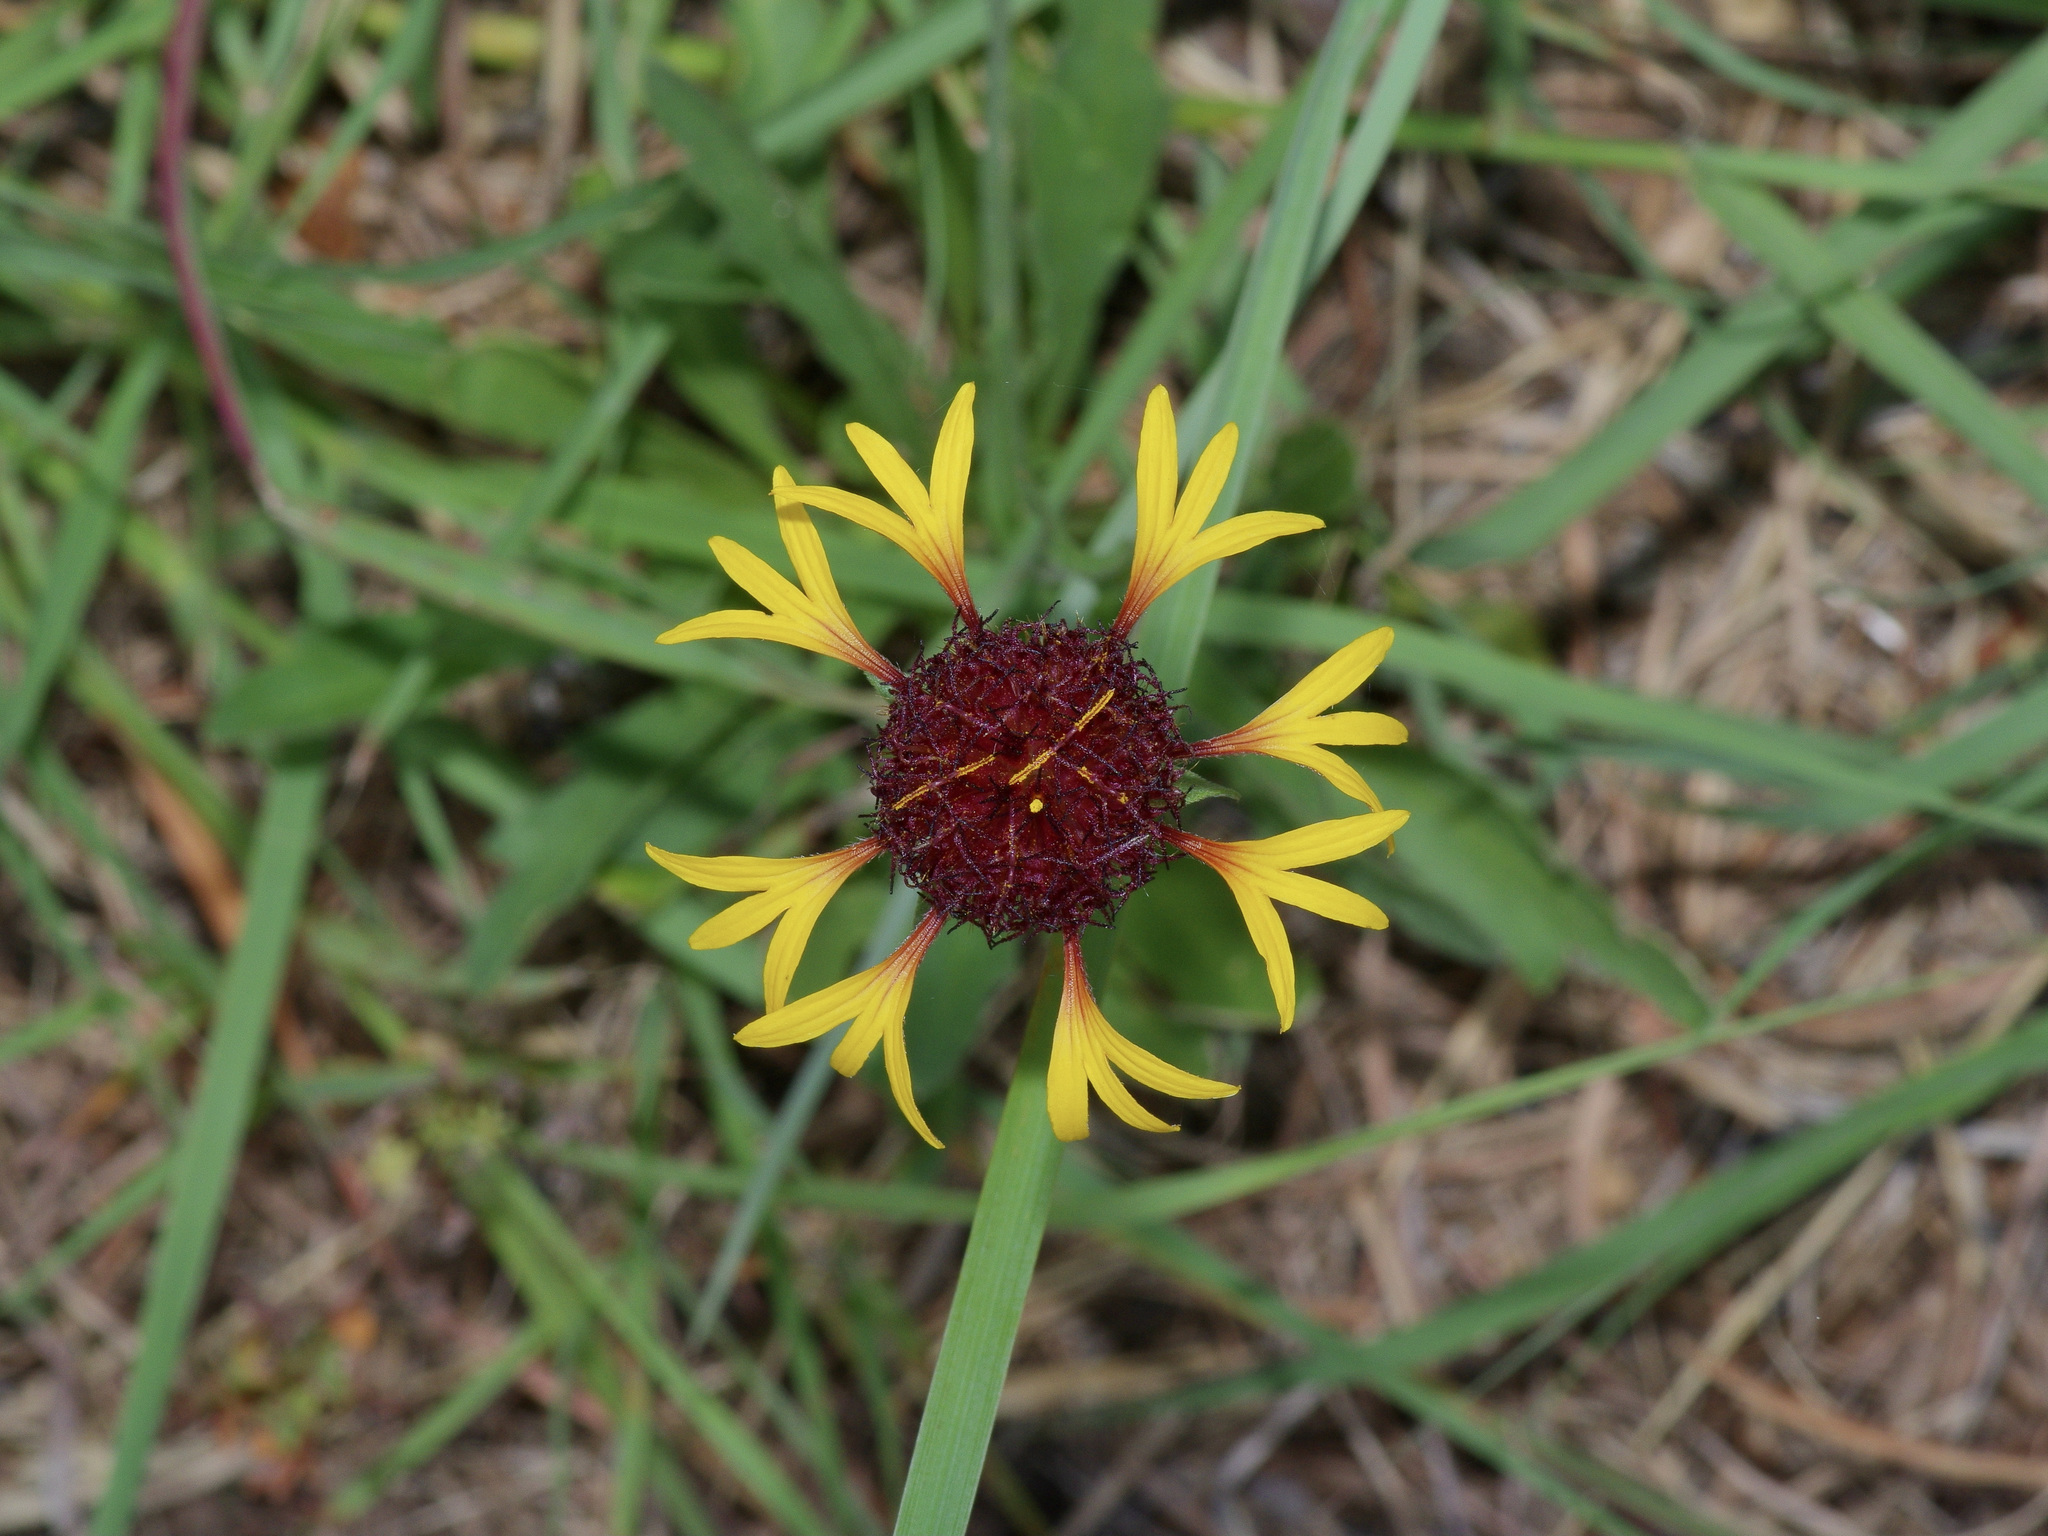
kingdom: Plantae
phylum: Tracheophyta
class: Magnoliopsida
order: Asterales
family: Asteraceae
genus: Gaillardia
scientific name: Gaillardia aestivalis
